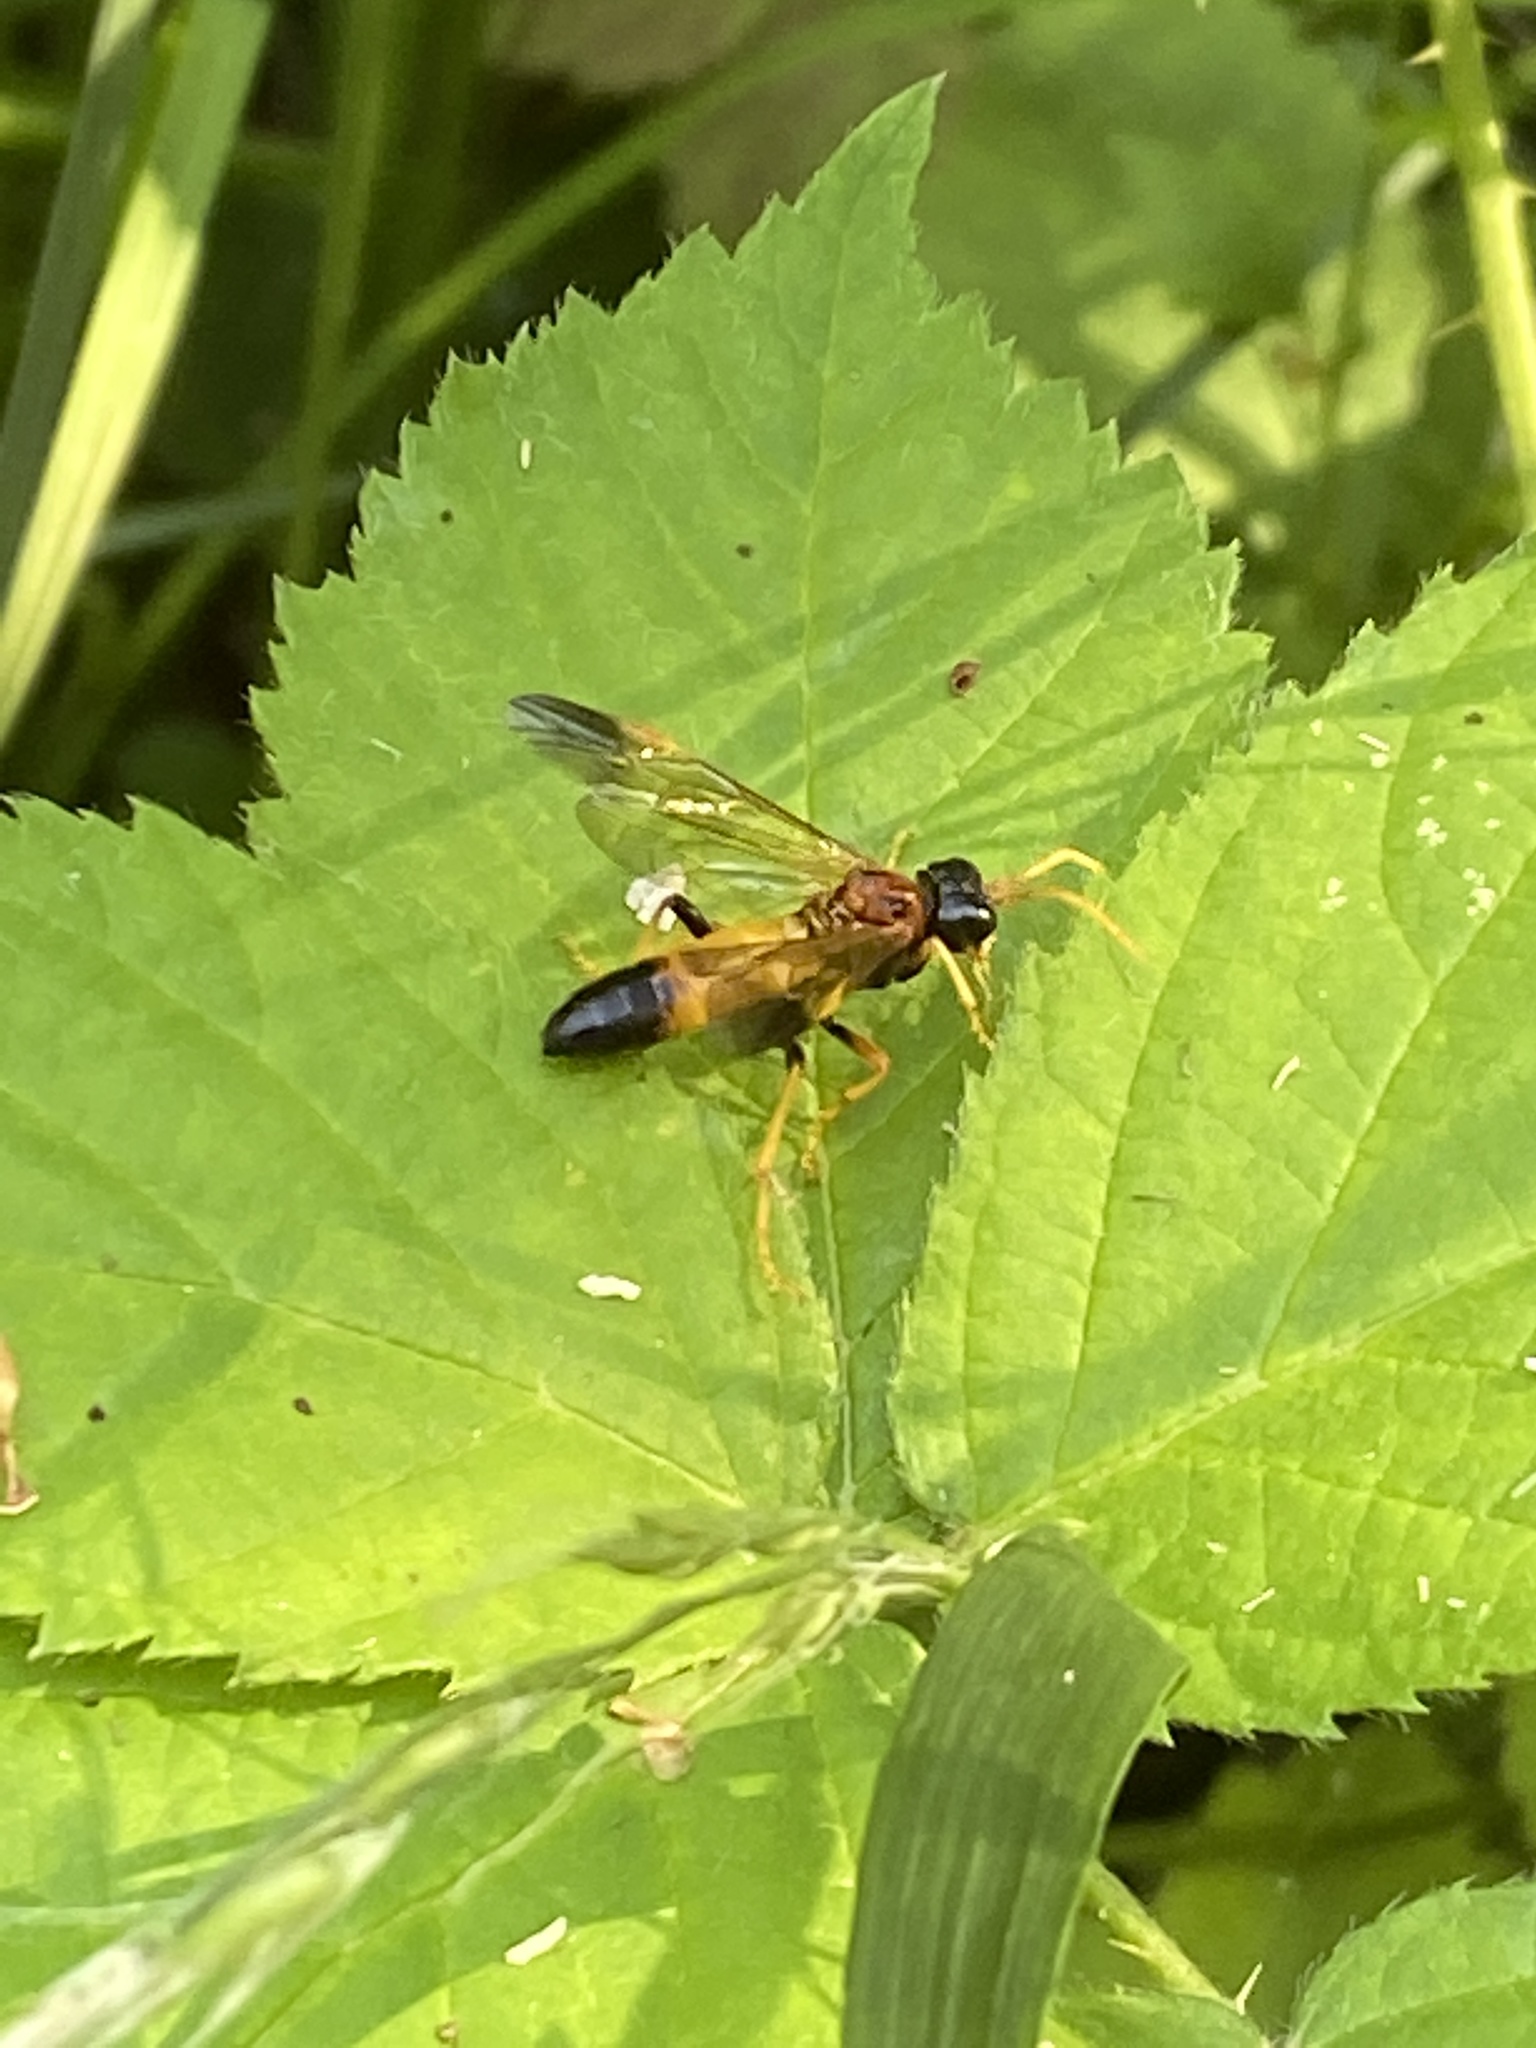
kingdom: Animalia
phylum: Arthropoda
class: Insecta
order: Hymenoptera
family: Tenthredinidae
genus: Tenthredo
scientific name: Tenthredo campestris
